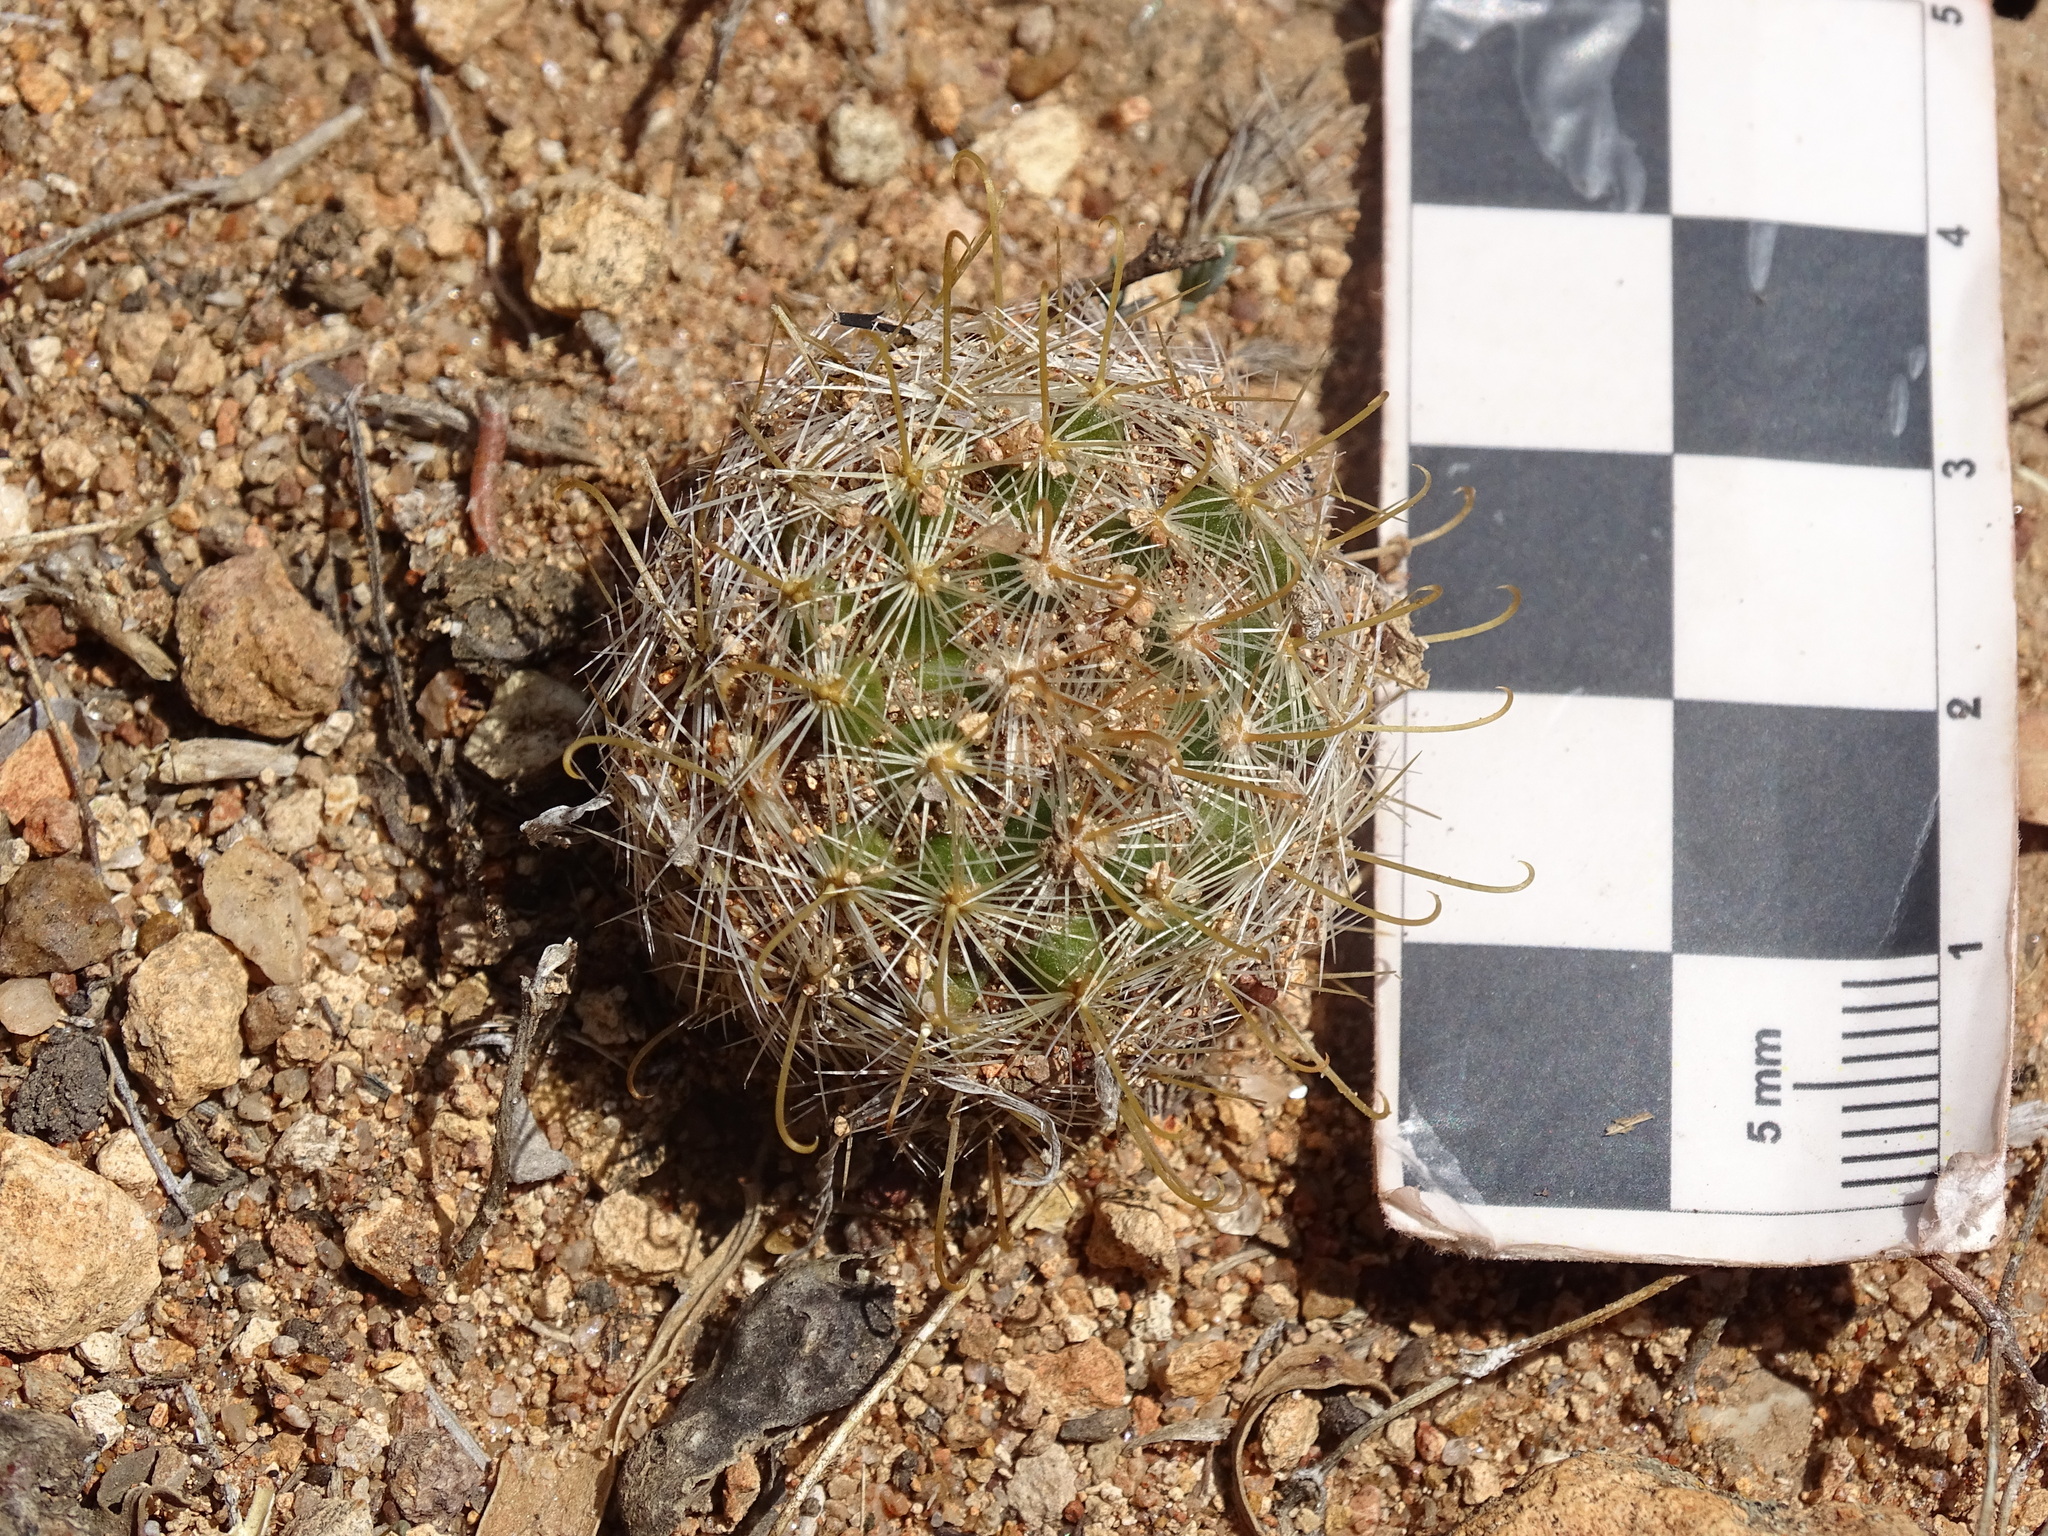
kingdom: Plantae
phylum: Tracheophyta
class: Magnoliopsida
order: Caryophyllales
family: Cactaceae
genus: Mammillaria
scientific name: Mammillaria jaliscana
